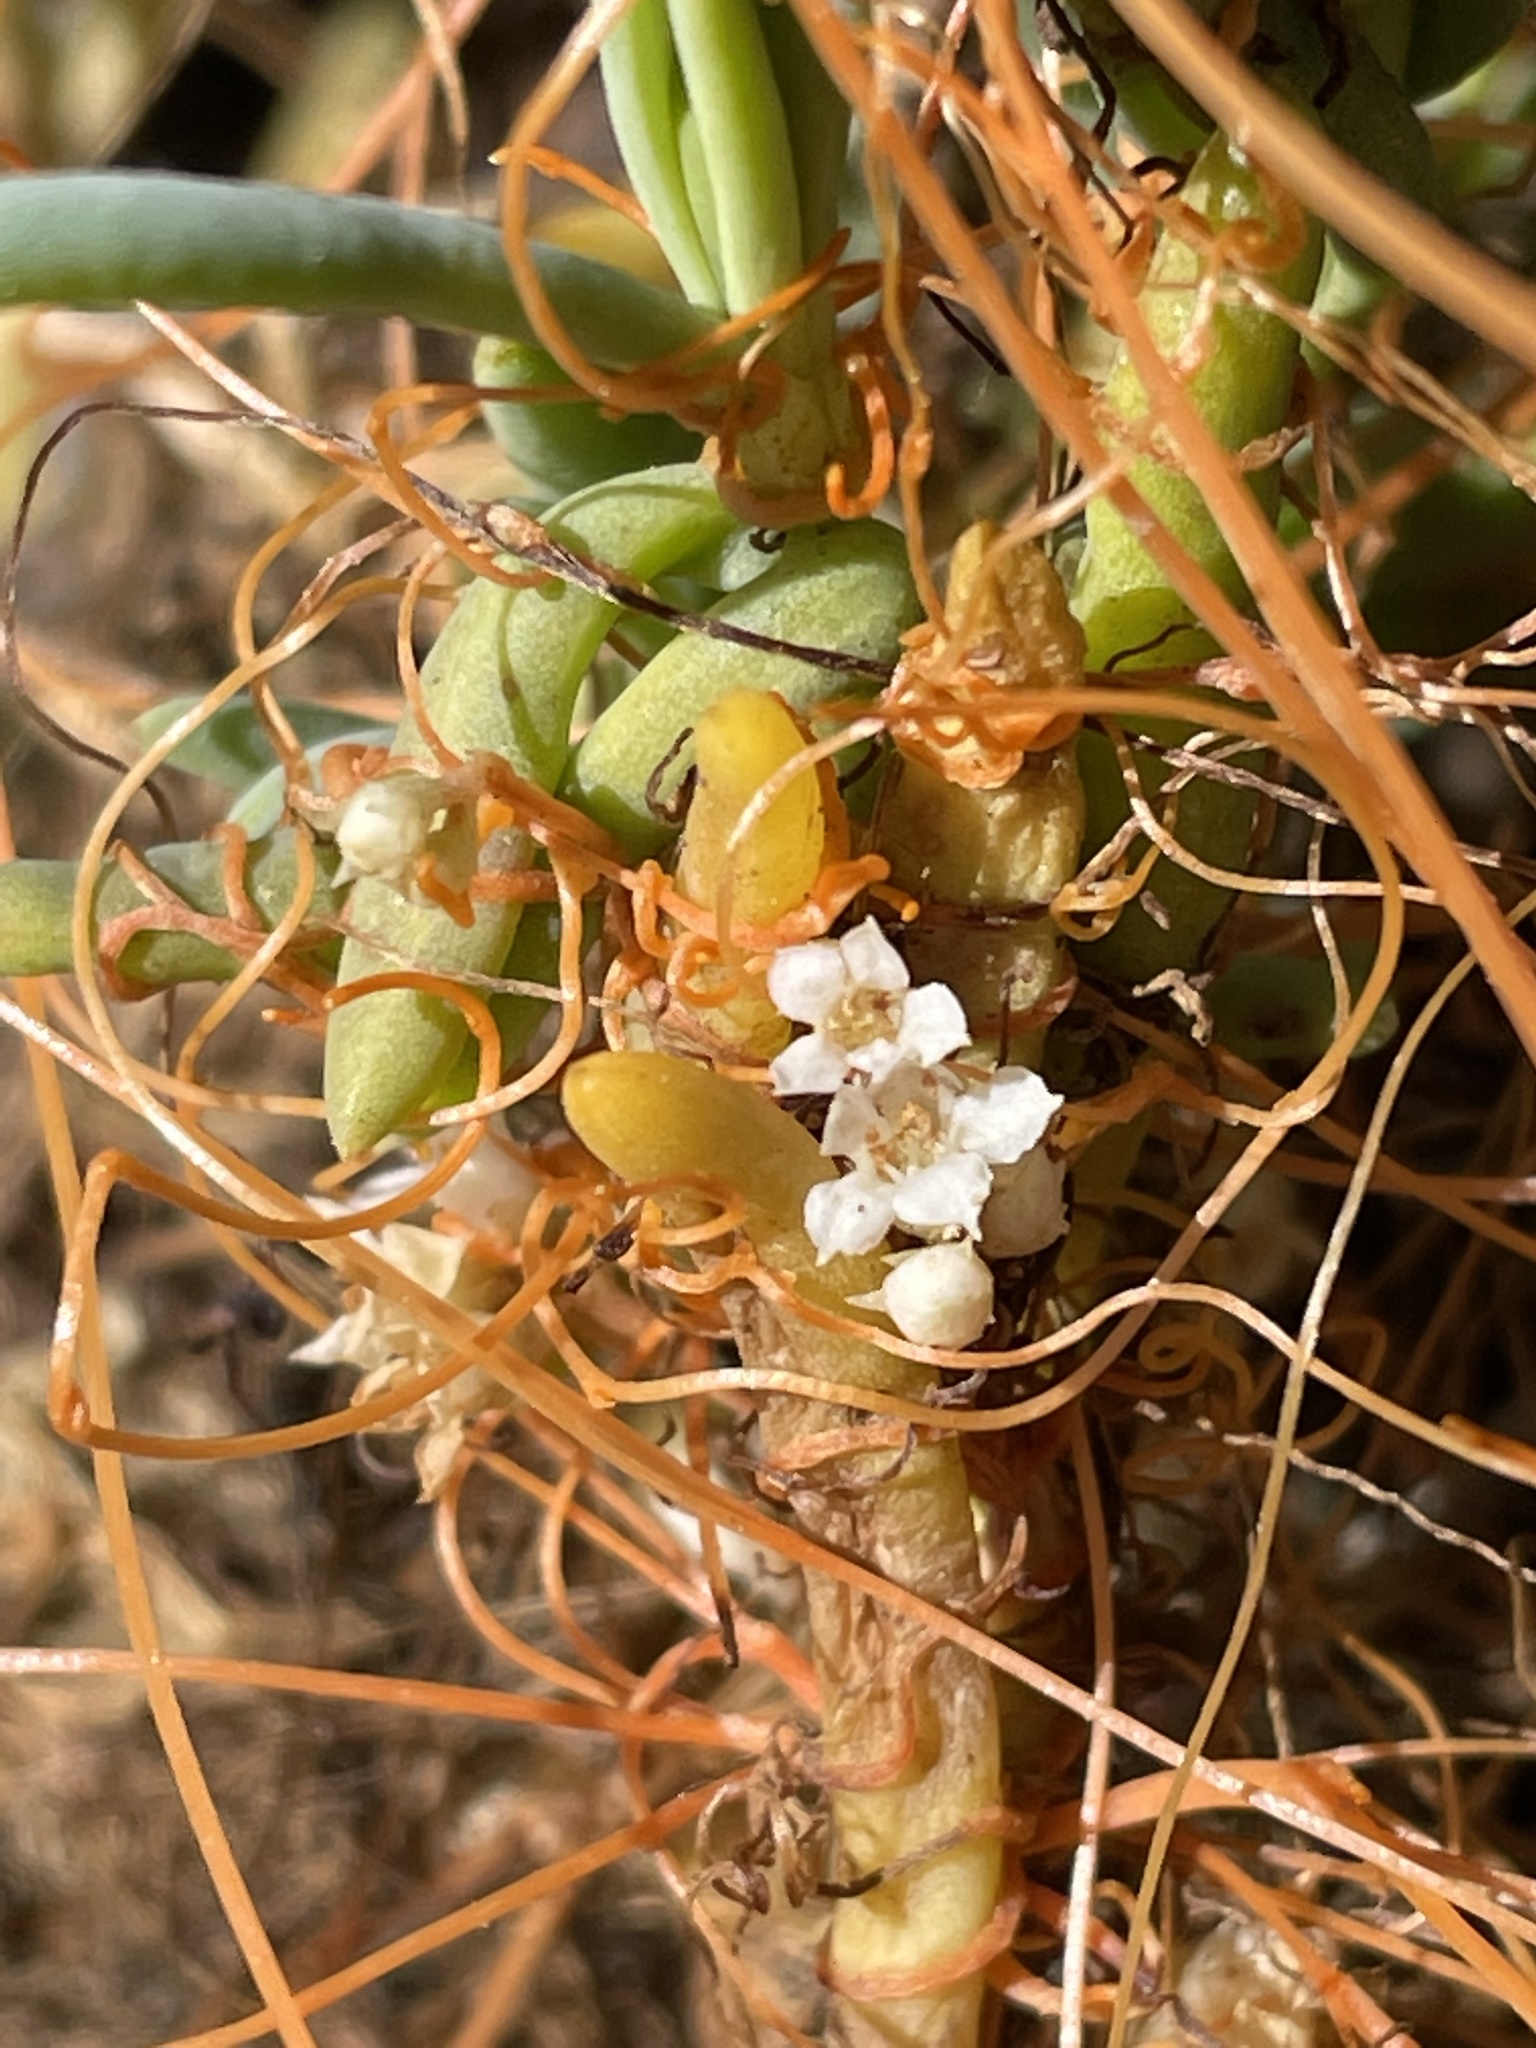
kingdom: Plantae
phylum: Tracheophyta
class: Magnoliopsida
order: Solanales
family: Convolvulaceae
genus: Cuscuta
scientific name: Cuscuta pacifica
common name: Large saltmarsh dodder
